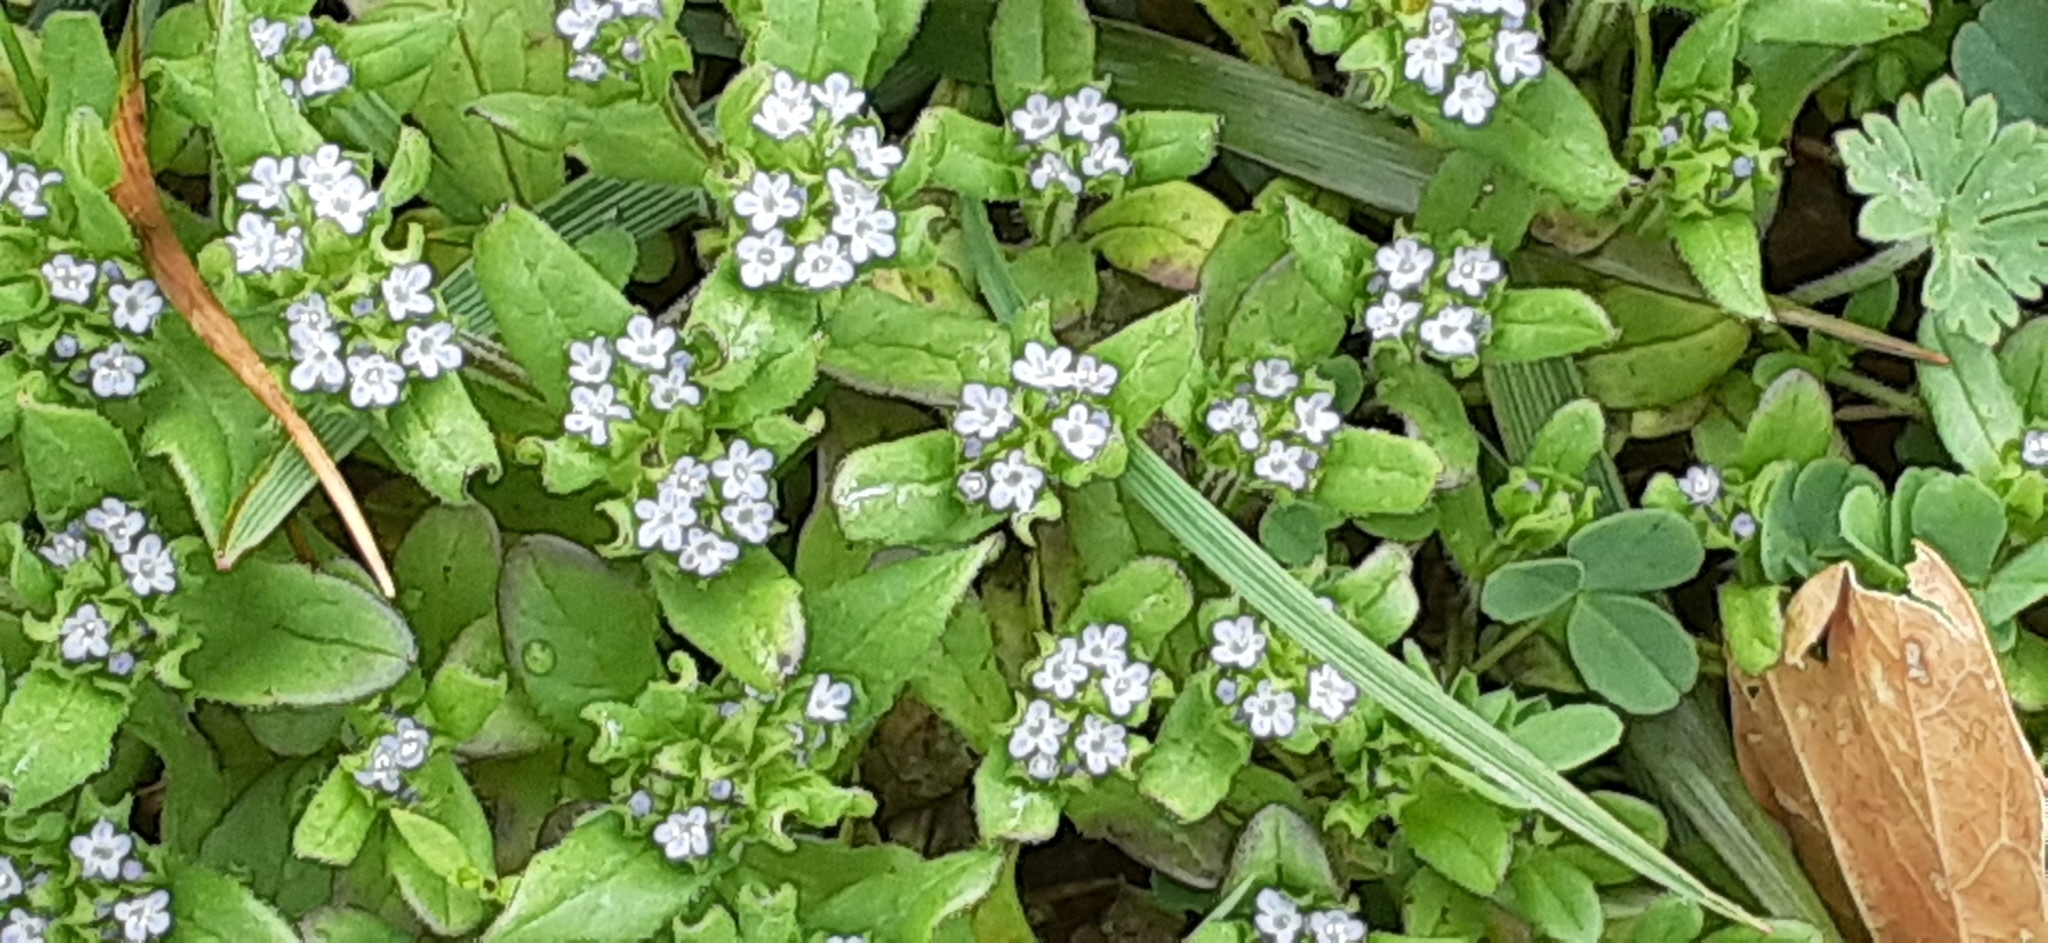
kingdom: Plantae
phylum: Tracheophyta
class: Magnoliopsida
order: Dipsacales
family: Caprifoliaceae
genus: Valerianella
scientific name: Valerianella locusta
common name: Common cornsalad
